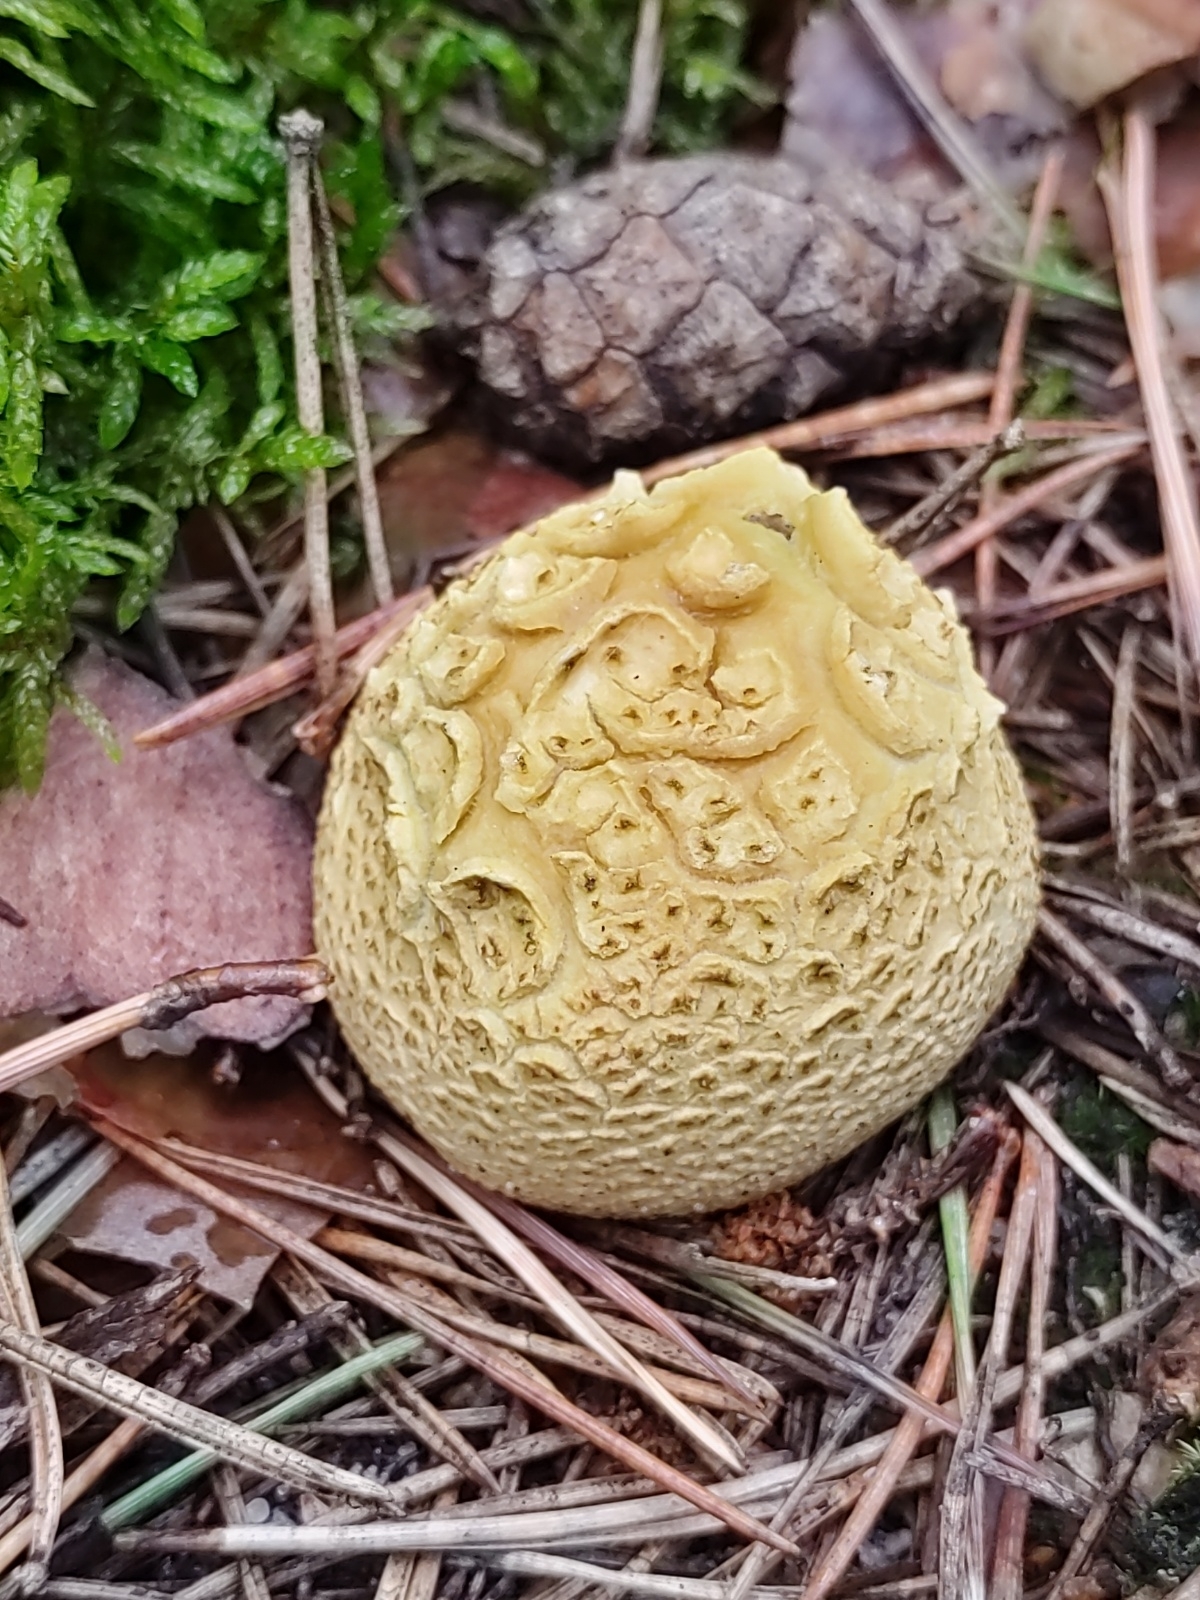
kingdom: Fungi
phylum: Basidiomycota
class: Agaricomycetes
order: Boletales
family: Sclerodermataceae
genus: Scleroderma
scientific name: Scleroderma citrinum
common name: Common earthball
